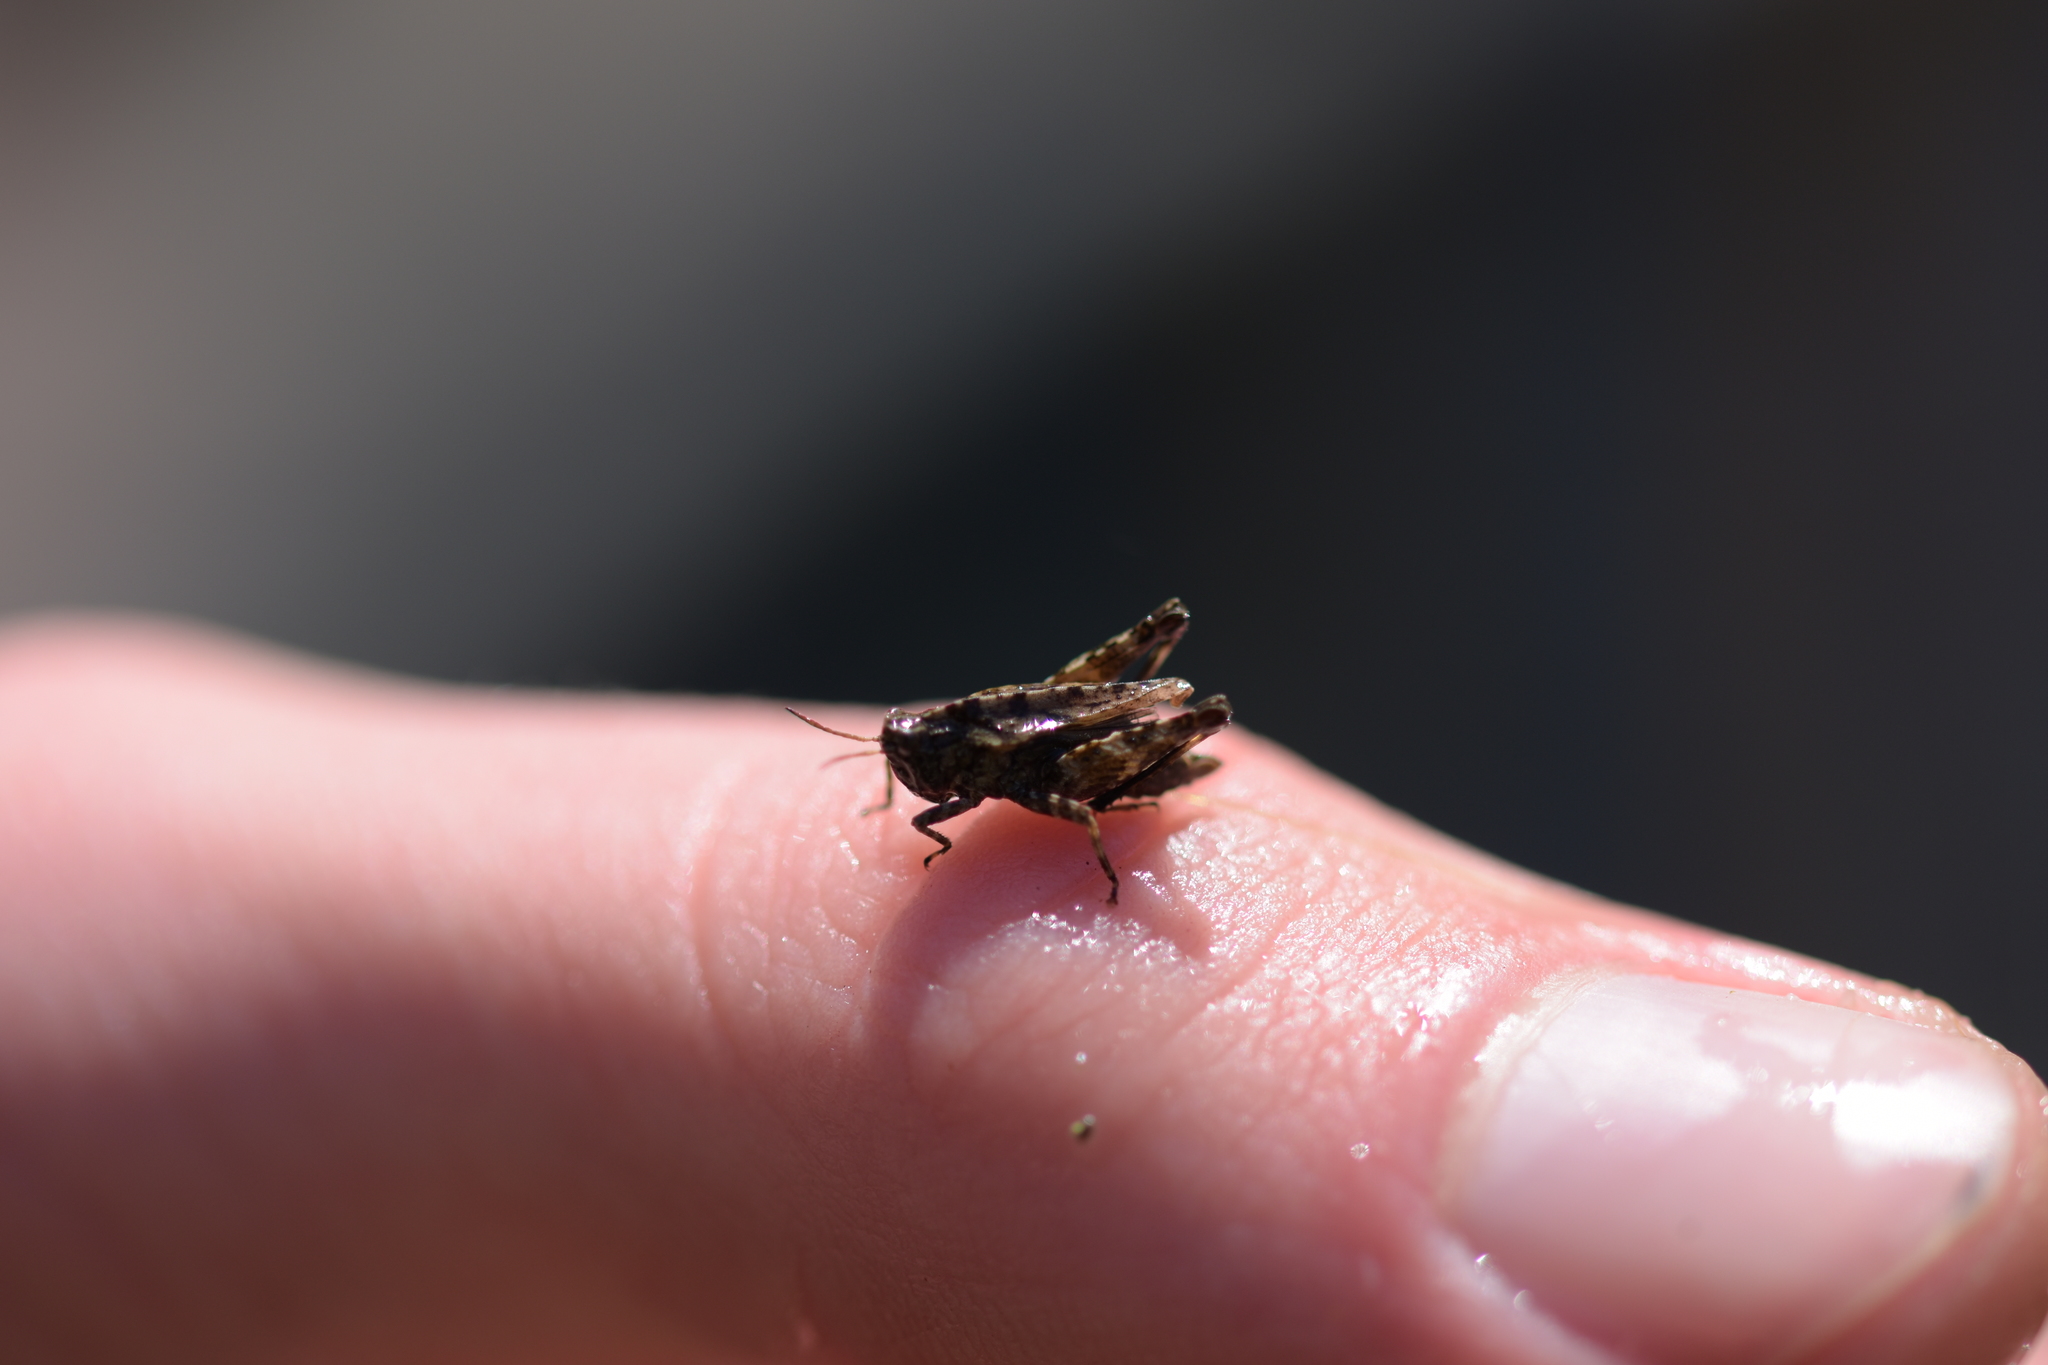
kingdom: Animalia
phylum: Arthropoda
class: Insecta
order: Orthoptera
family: Tetrigidae
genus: Tetrix
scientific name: Tetrix undulata
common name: Common groundhopper
